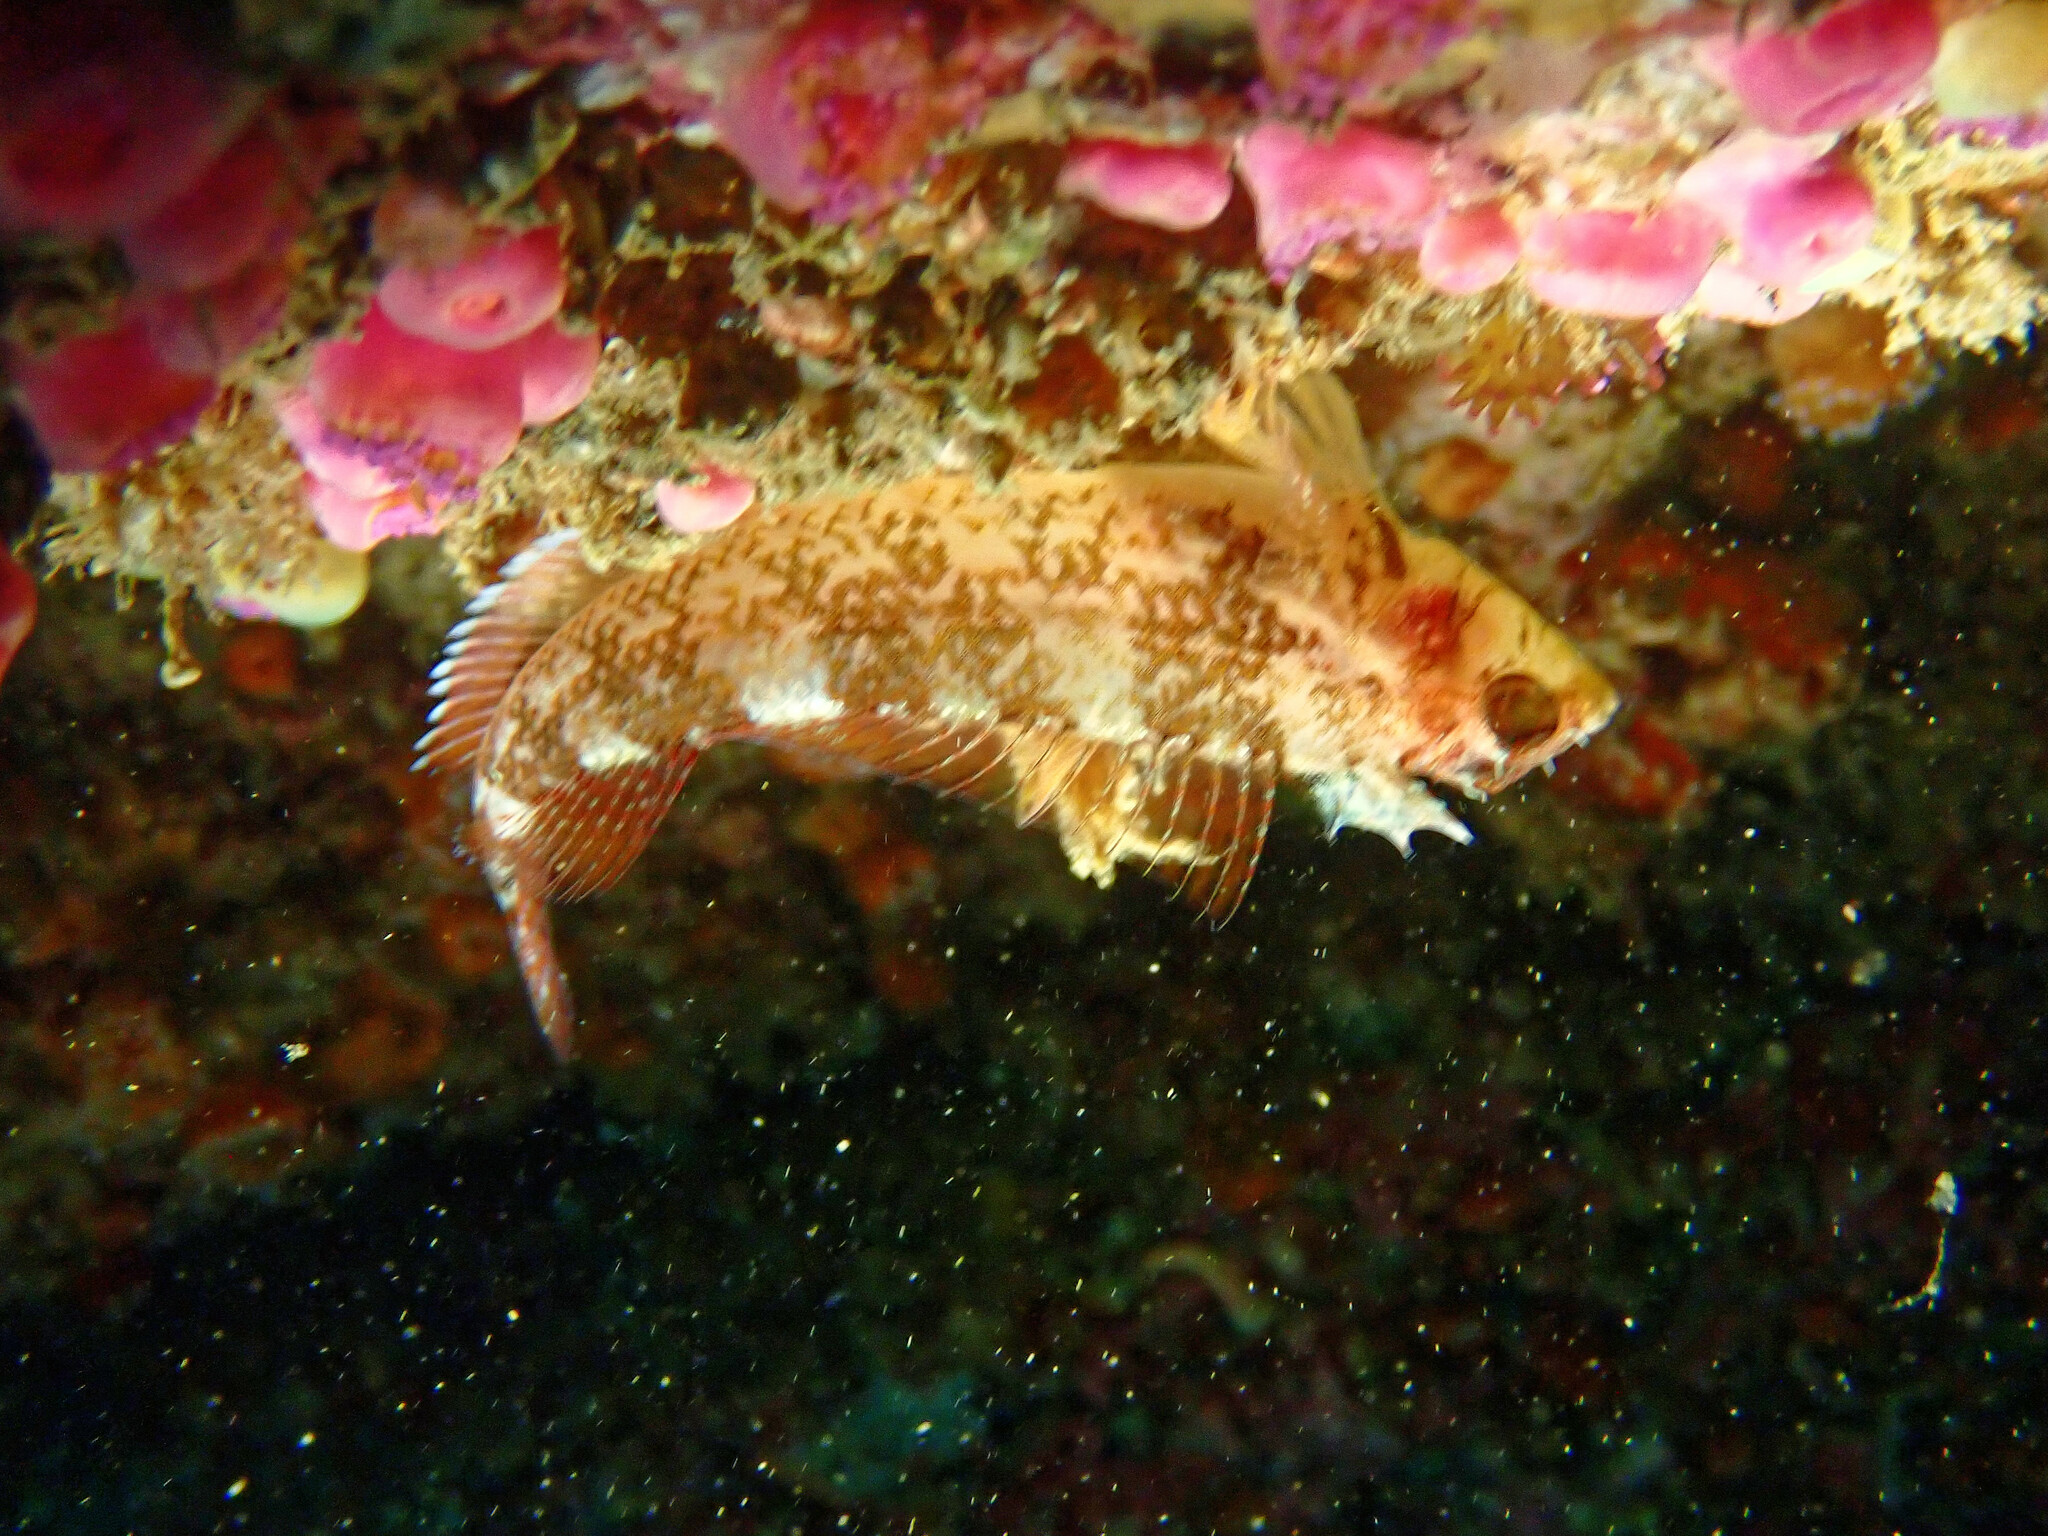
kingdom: Animalia
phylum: Chordata
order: Perciformes
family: Tripterygiidae
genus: Tripterygion
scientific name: Tripterygion delaisi
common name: Black-face blenny
